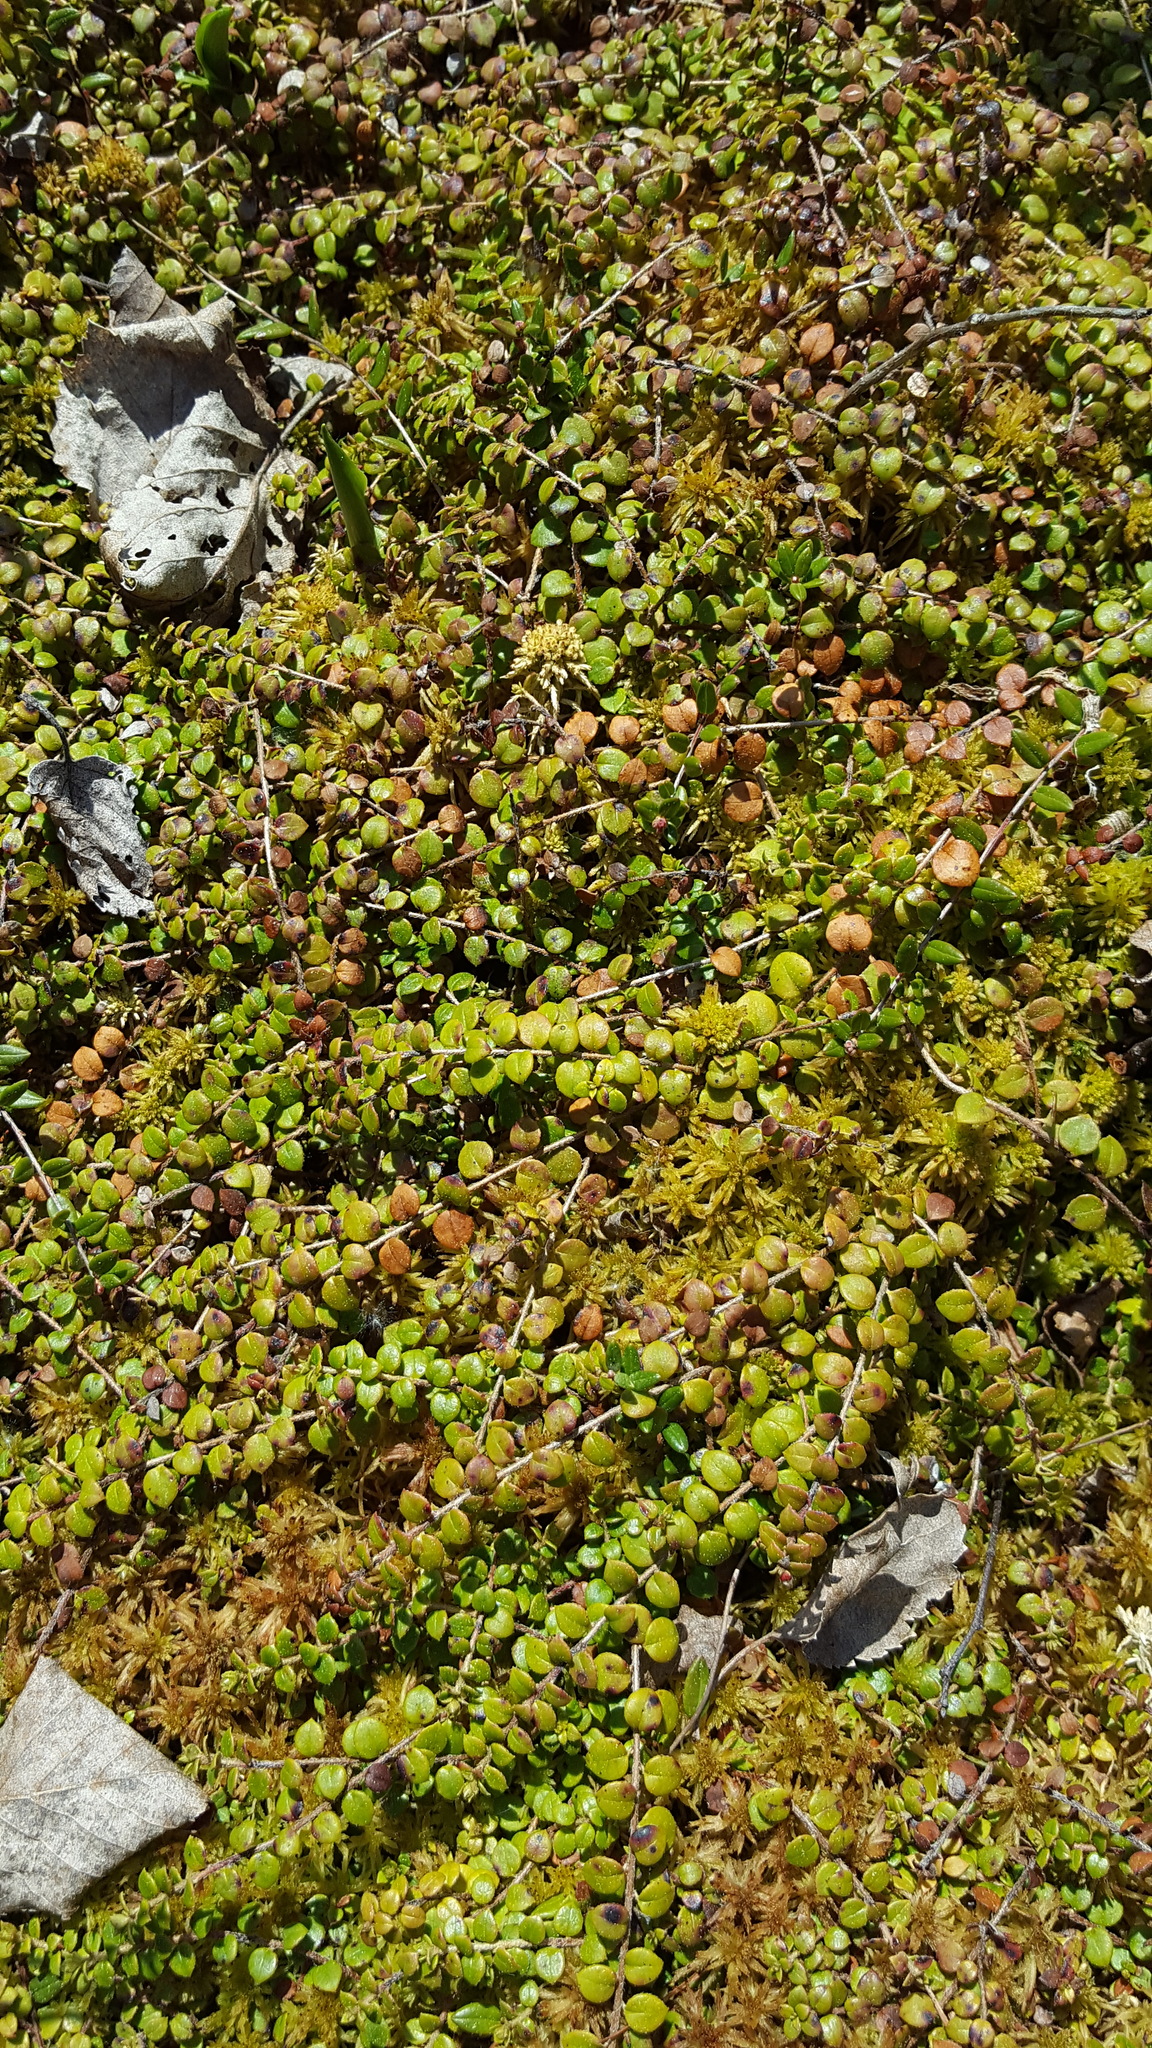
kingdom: Plantae
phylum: Tracheophyta
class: Magnoliopsida
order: Ericales
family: Ericaceae
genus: Gaultheria
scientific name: Gaultheria hispidula
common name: Cancer wintergreen
